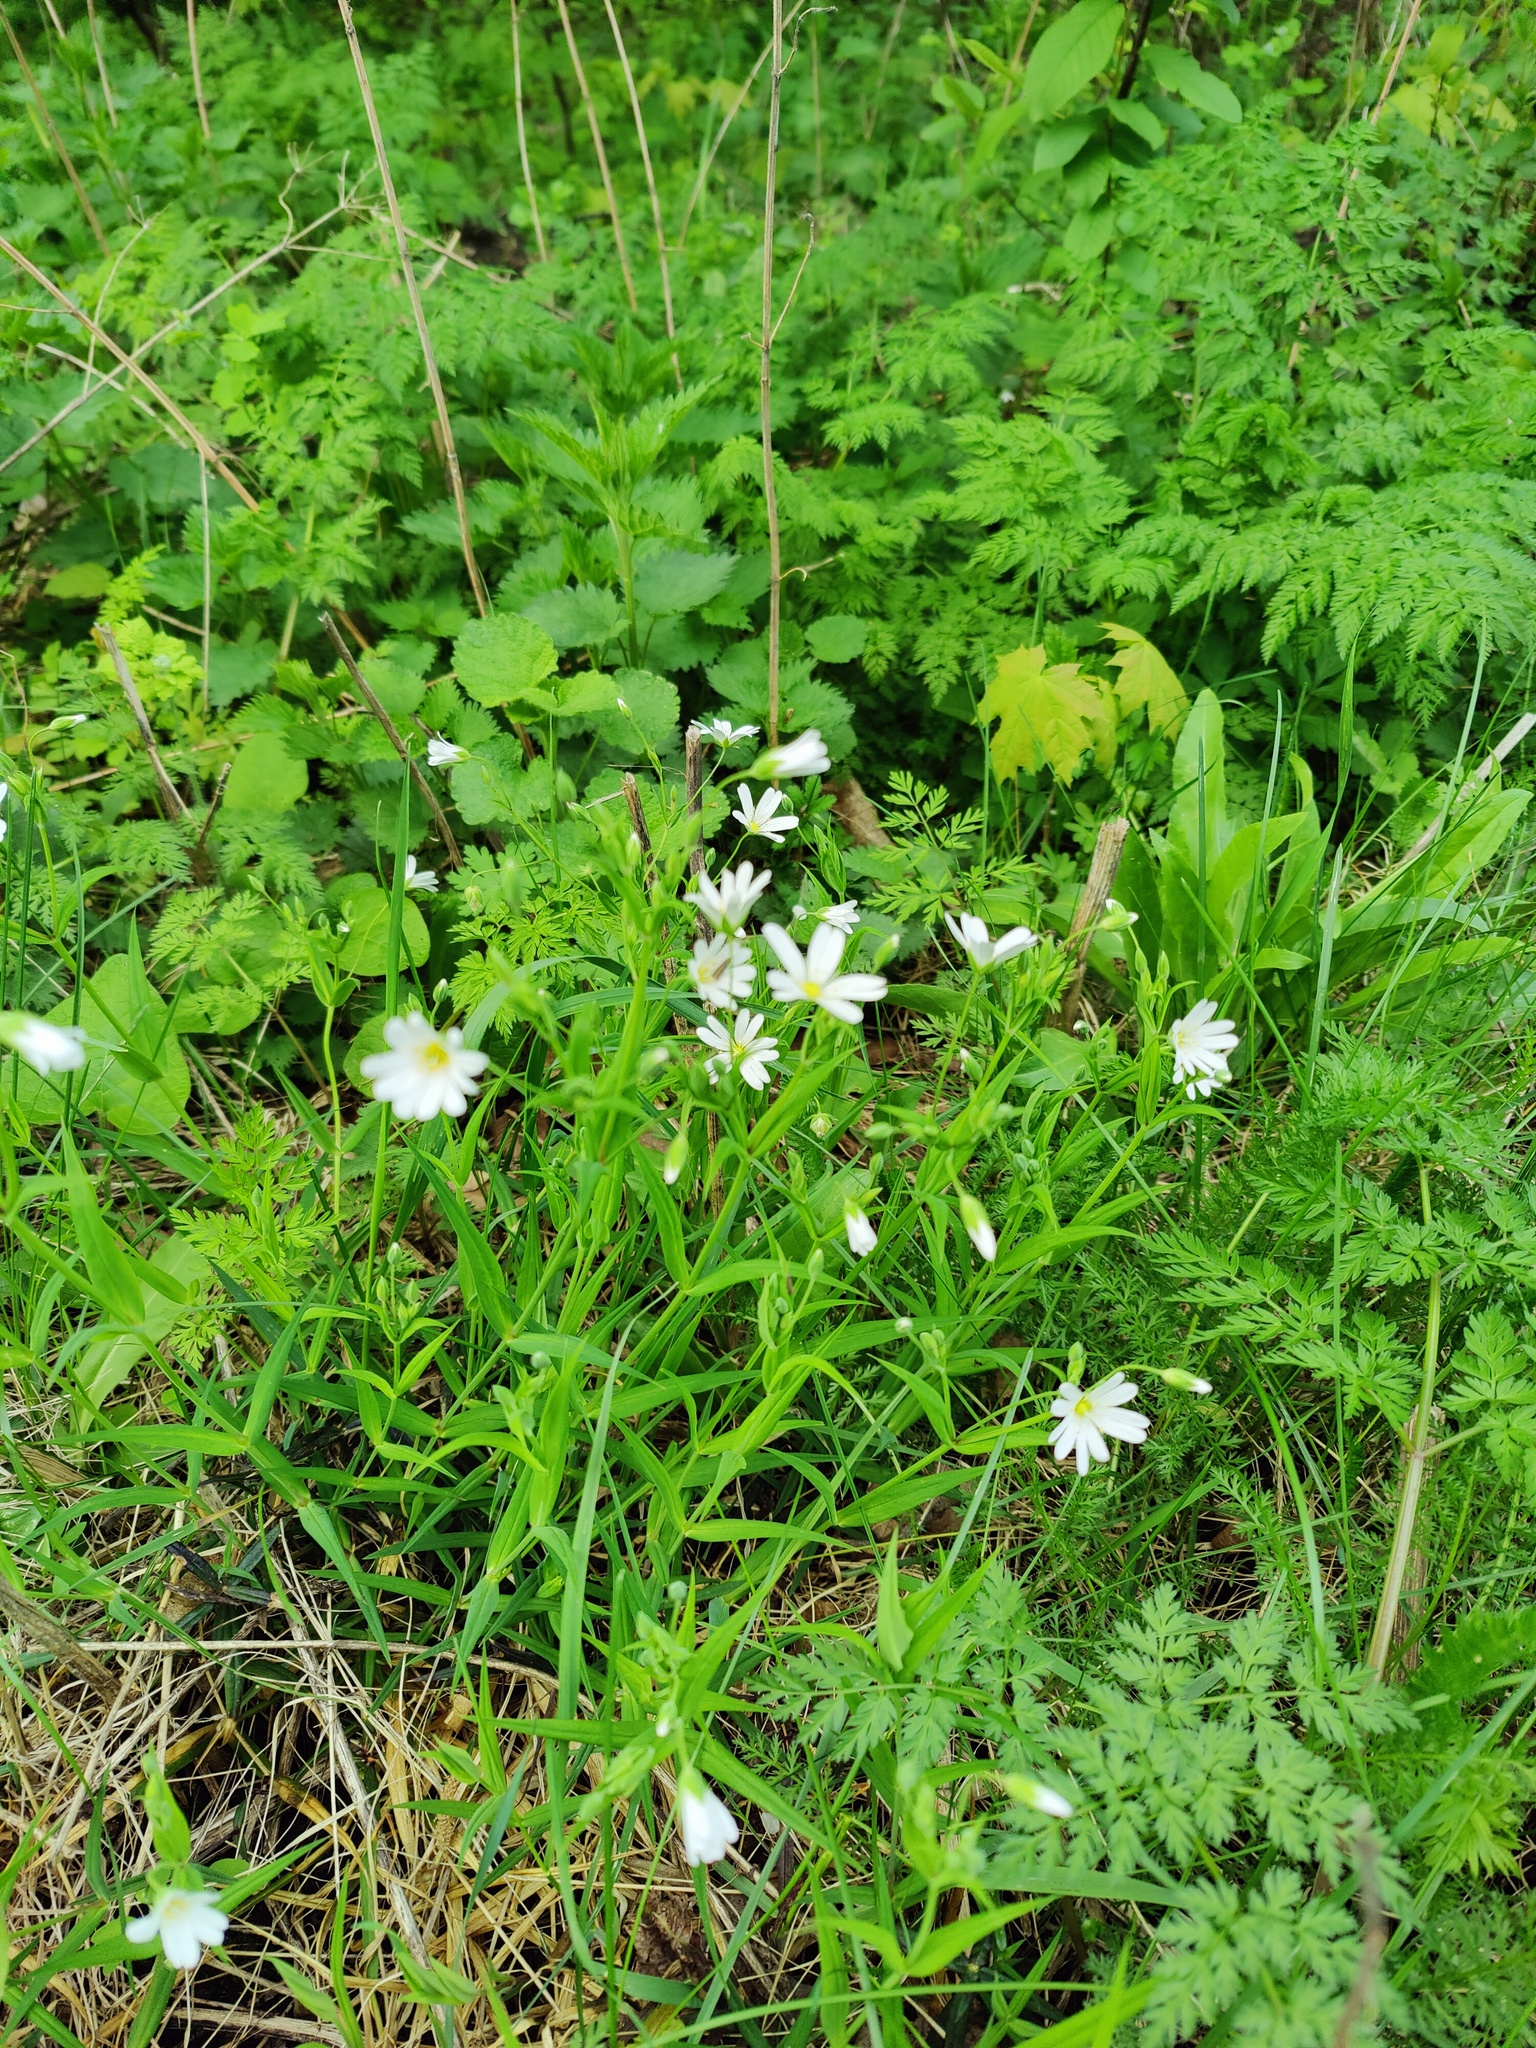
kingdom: Plantae
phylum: Tracheophyta
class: Magnoliopsida
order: Caryophyllales
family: Caryophyllaceae
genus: Rabelera
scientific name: Rabelera holostea
